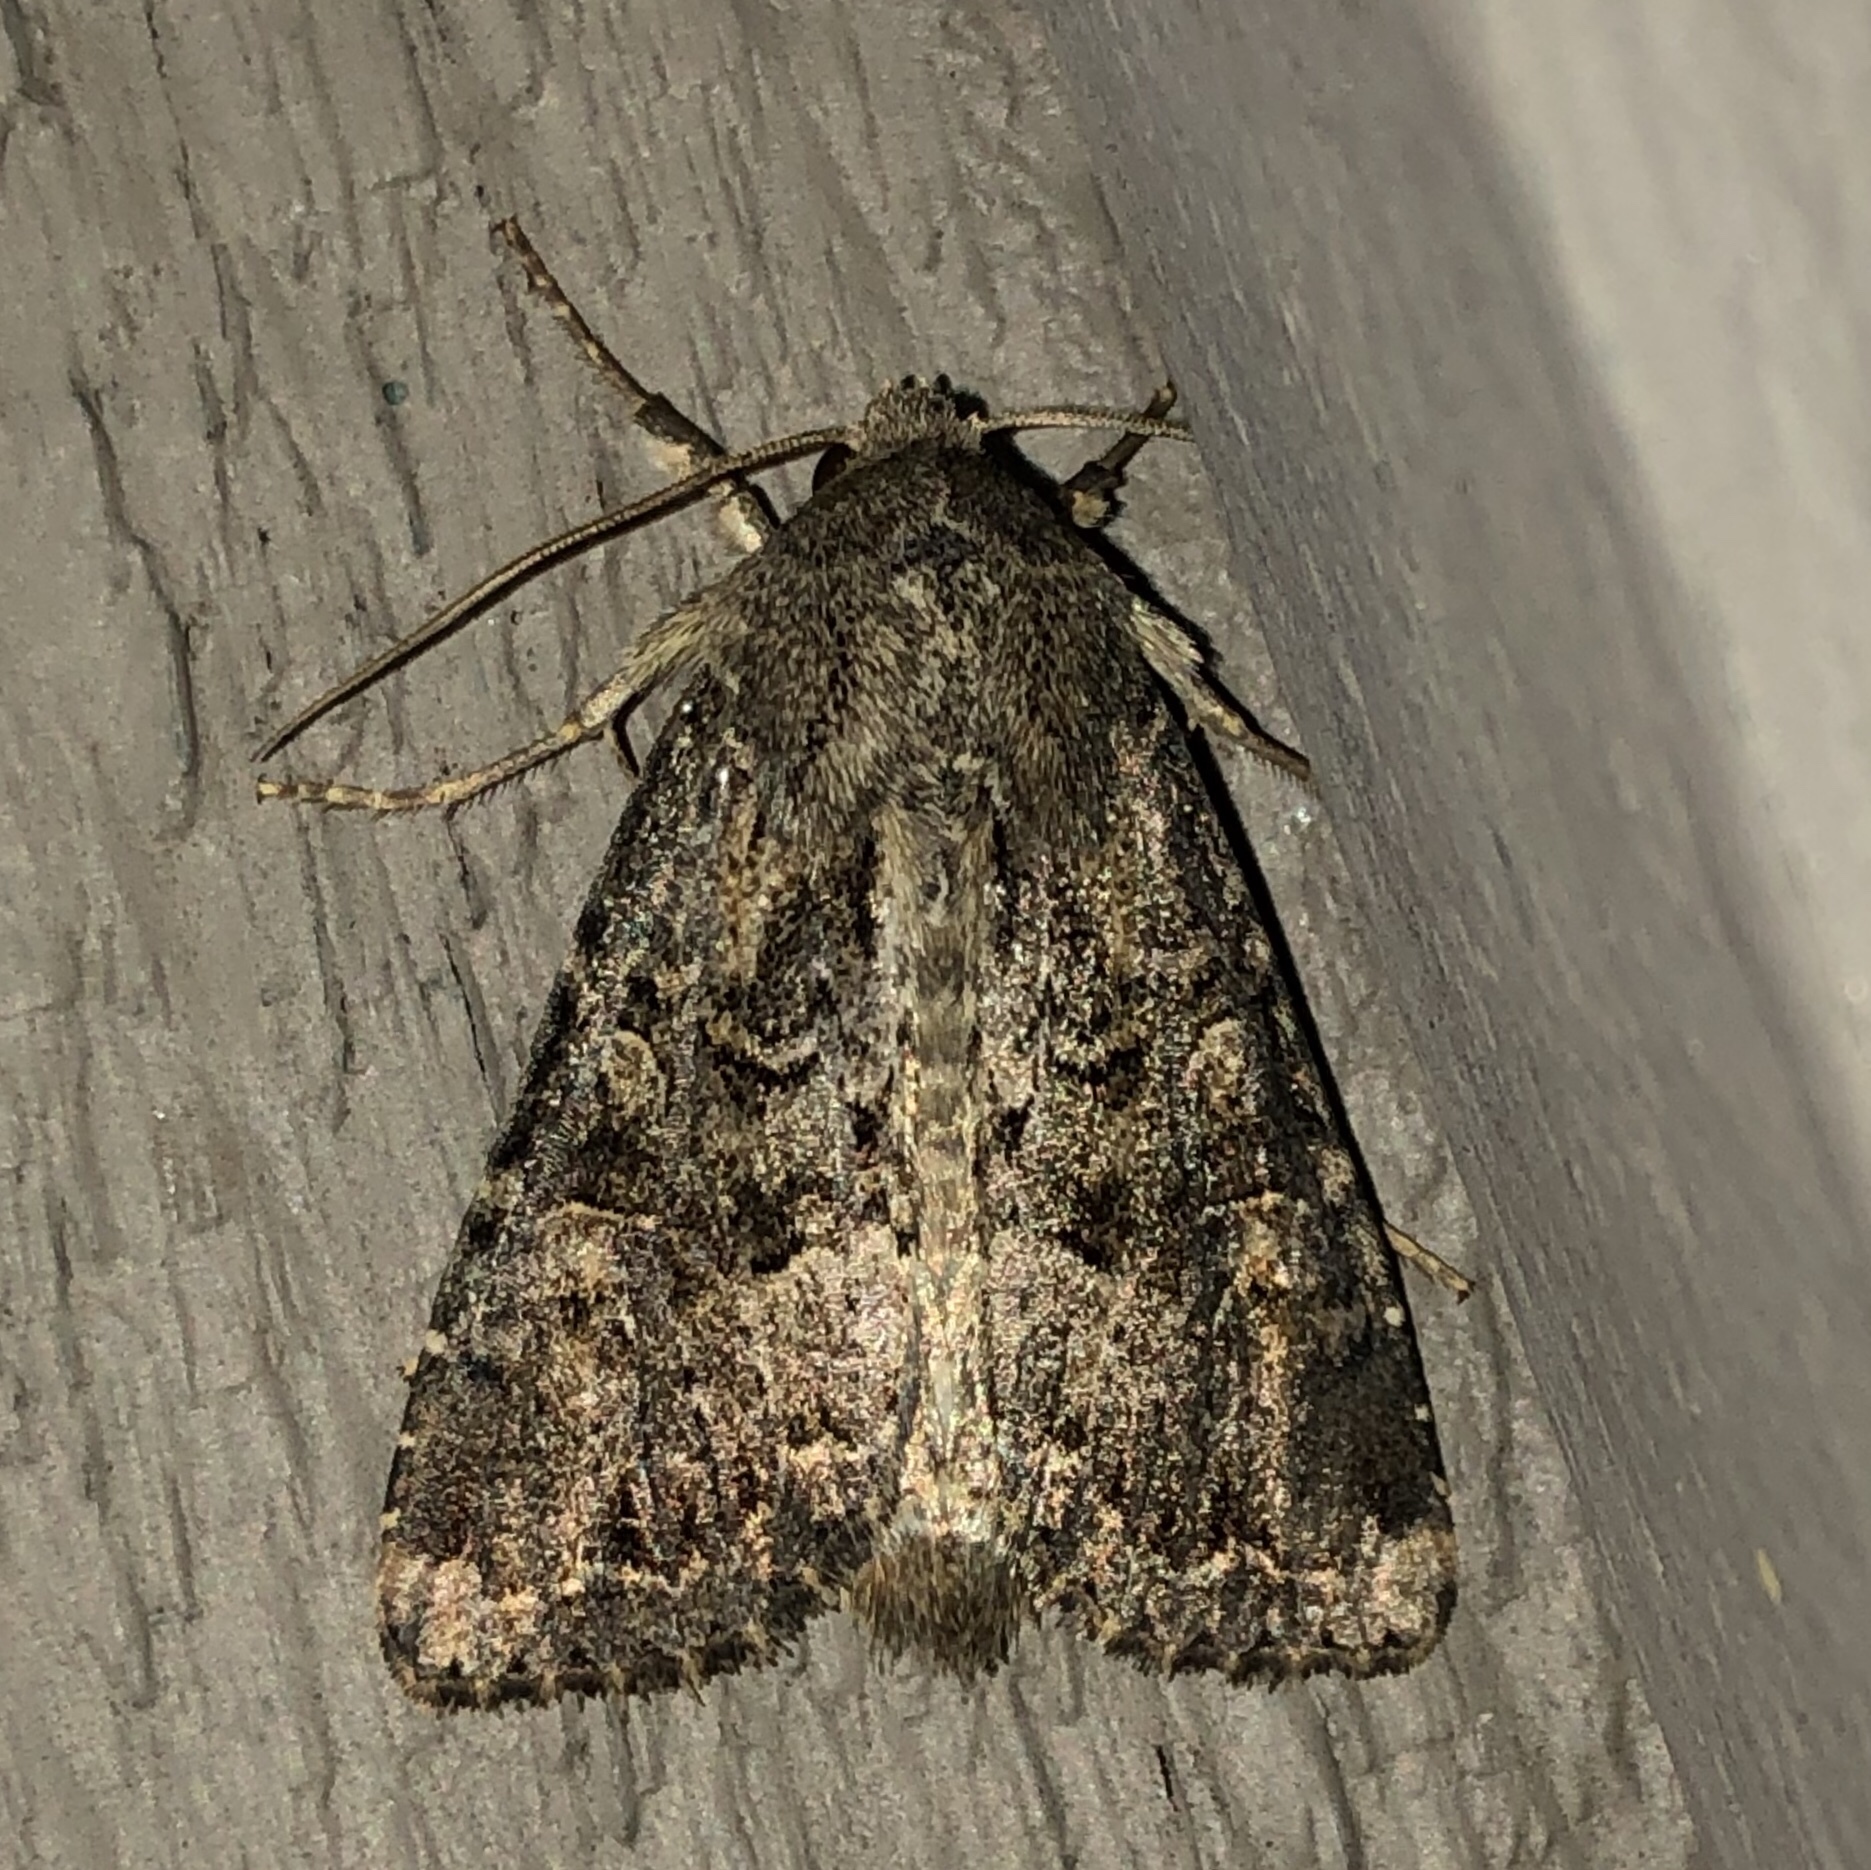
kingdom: Animalia
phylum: Arthropoda
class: Insecta
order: Lepidoptera
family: Noctuidae
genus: Anarta
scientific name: Anarta trifolii
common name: Clover cutworm moth
